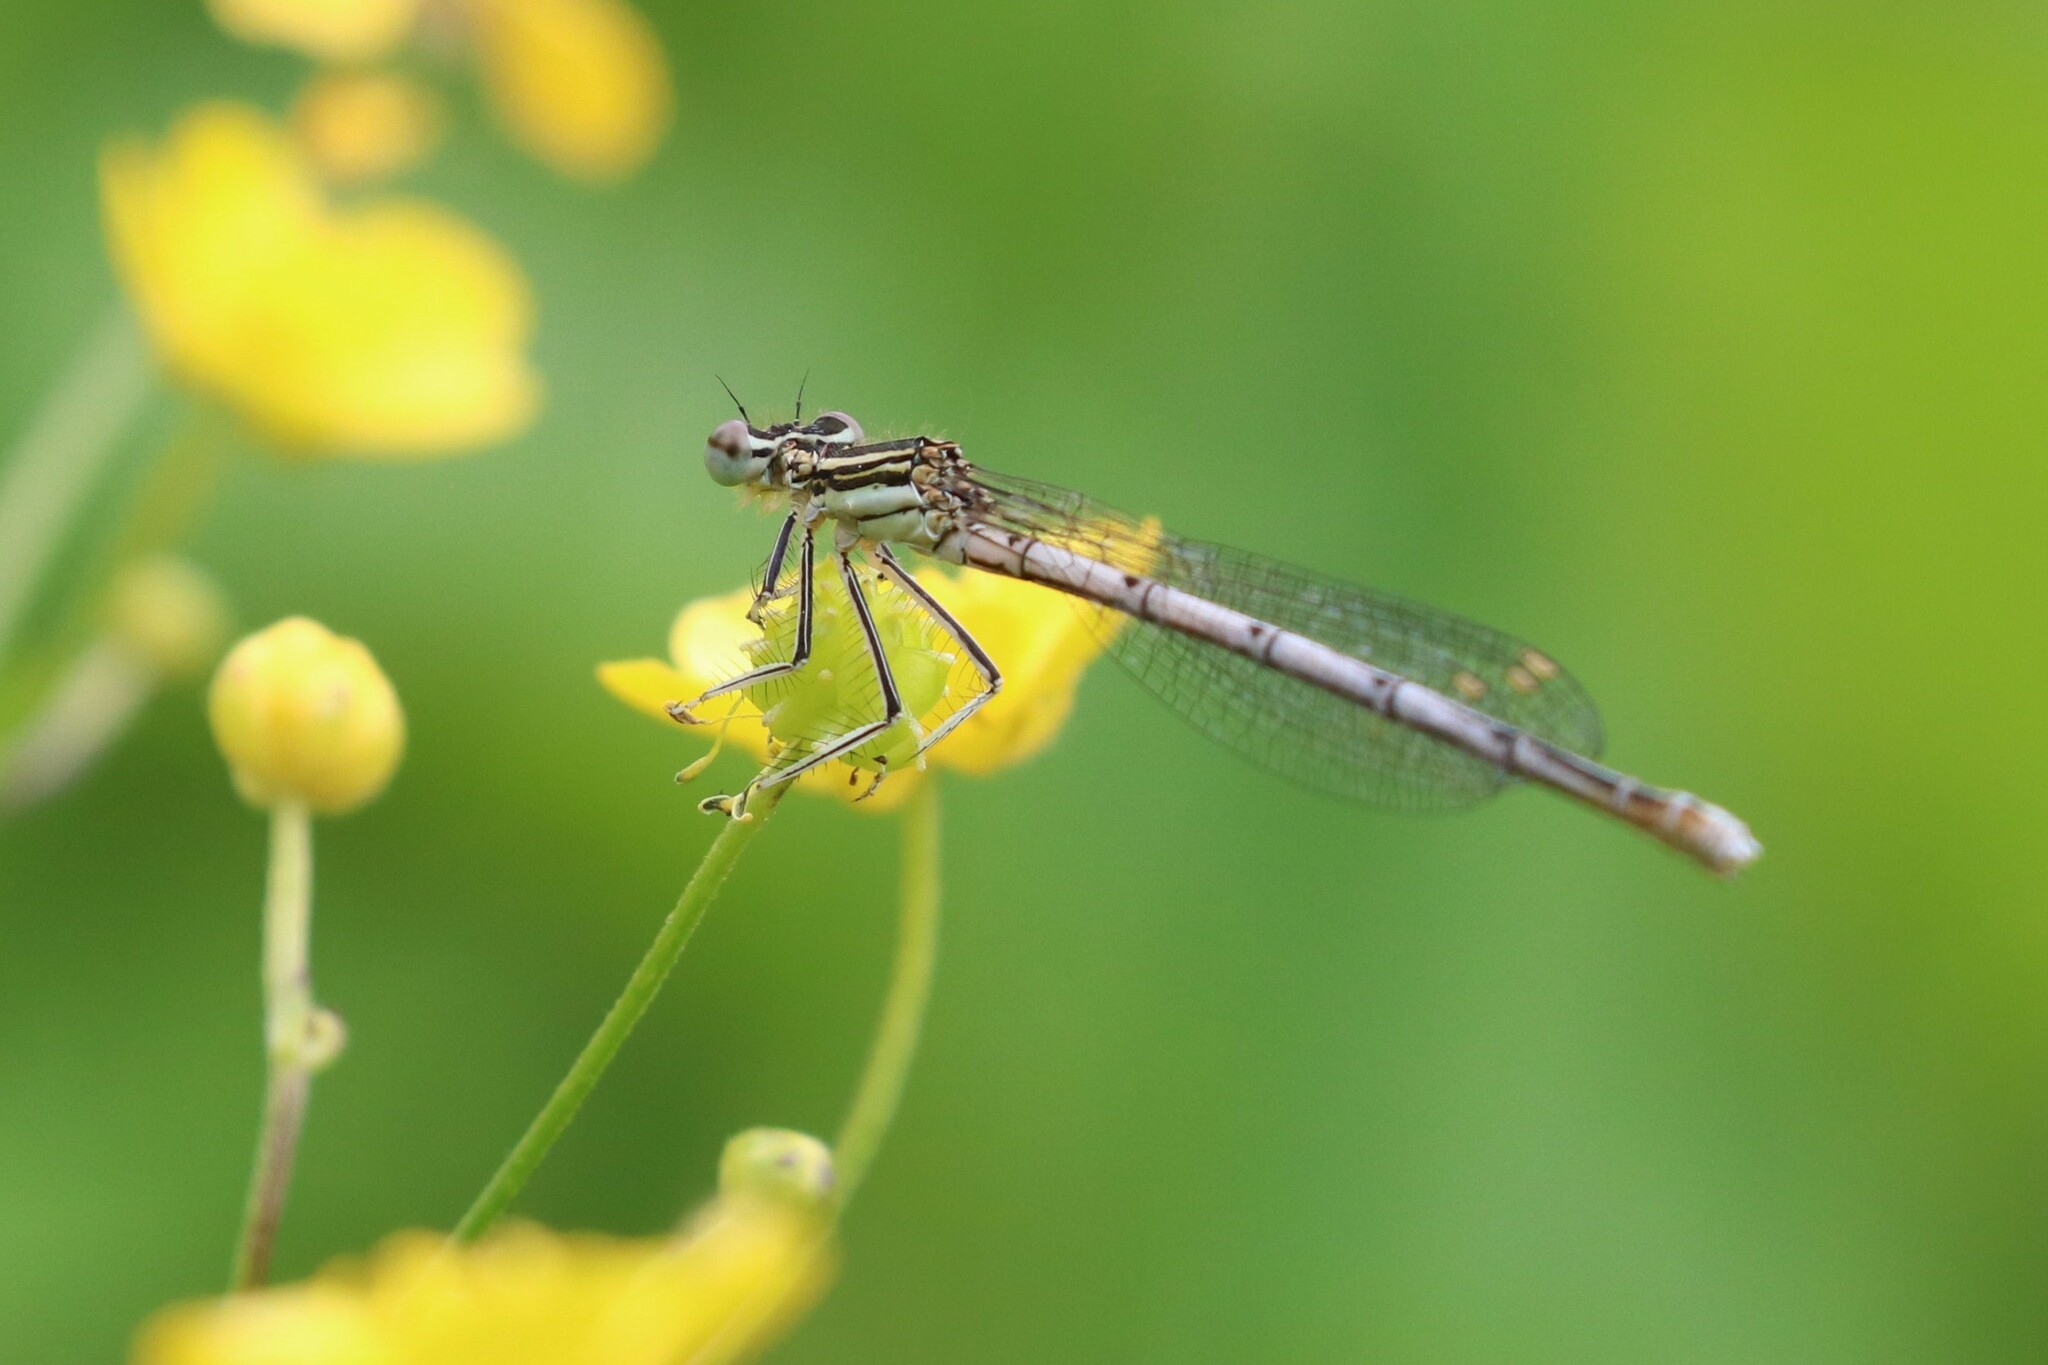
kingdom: Animalia
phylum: Arthropoda
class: Insecta
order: Odonata
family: Platycnemididae
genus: Platycnemis
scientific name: Platycnemis pennipes
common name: White-legged damselfly
